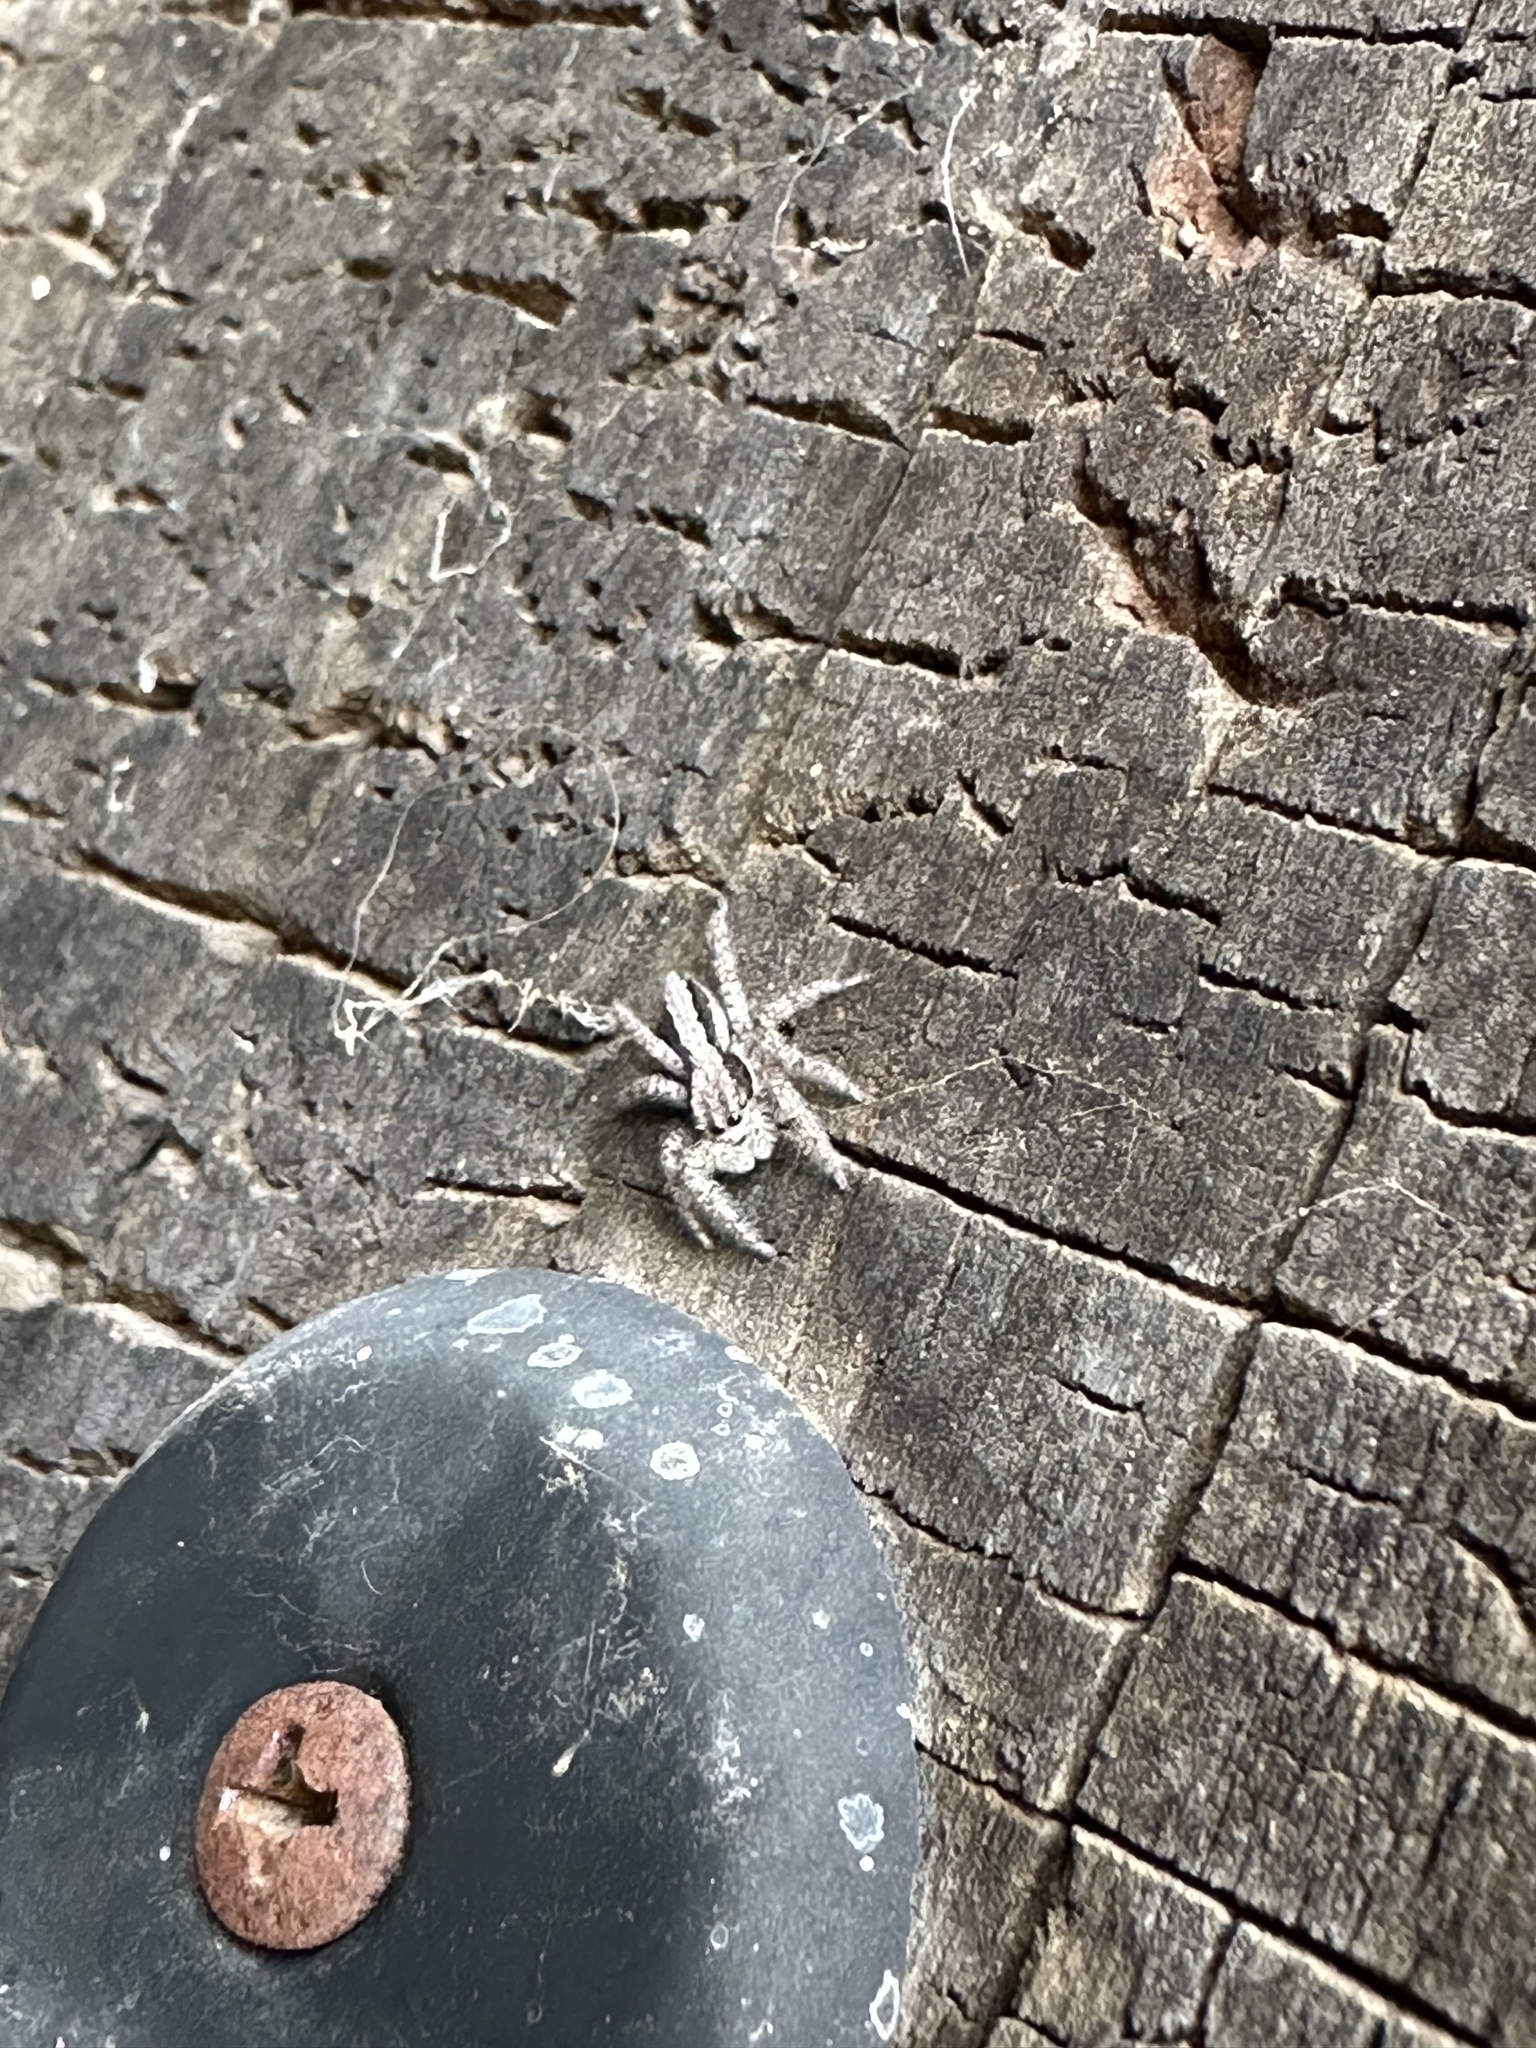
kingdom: Animalia
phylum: Arthropoda
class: Arachnida
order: Araneae
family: Salticidae
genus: Platycryptus
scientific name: Platycryptus californicus
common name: Jumping spiders
